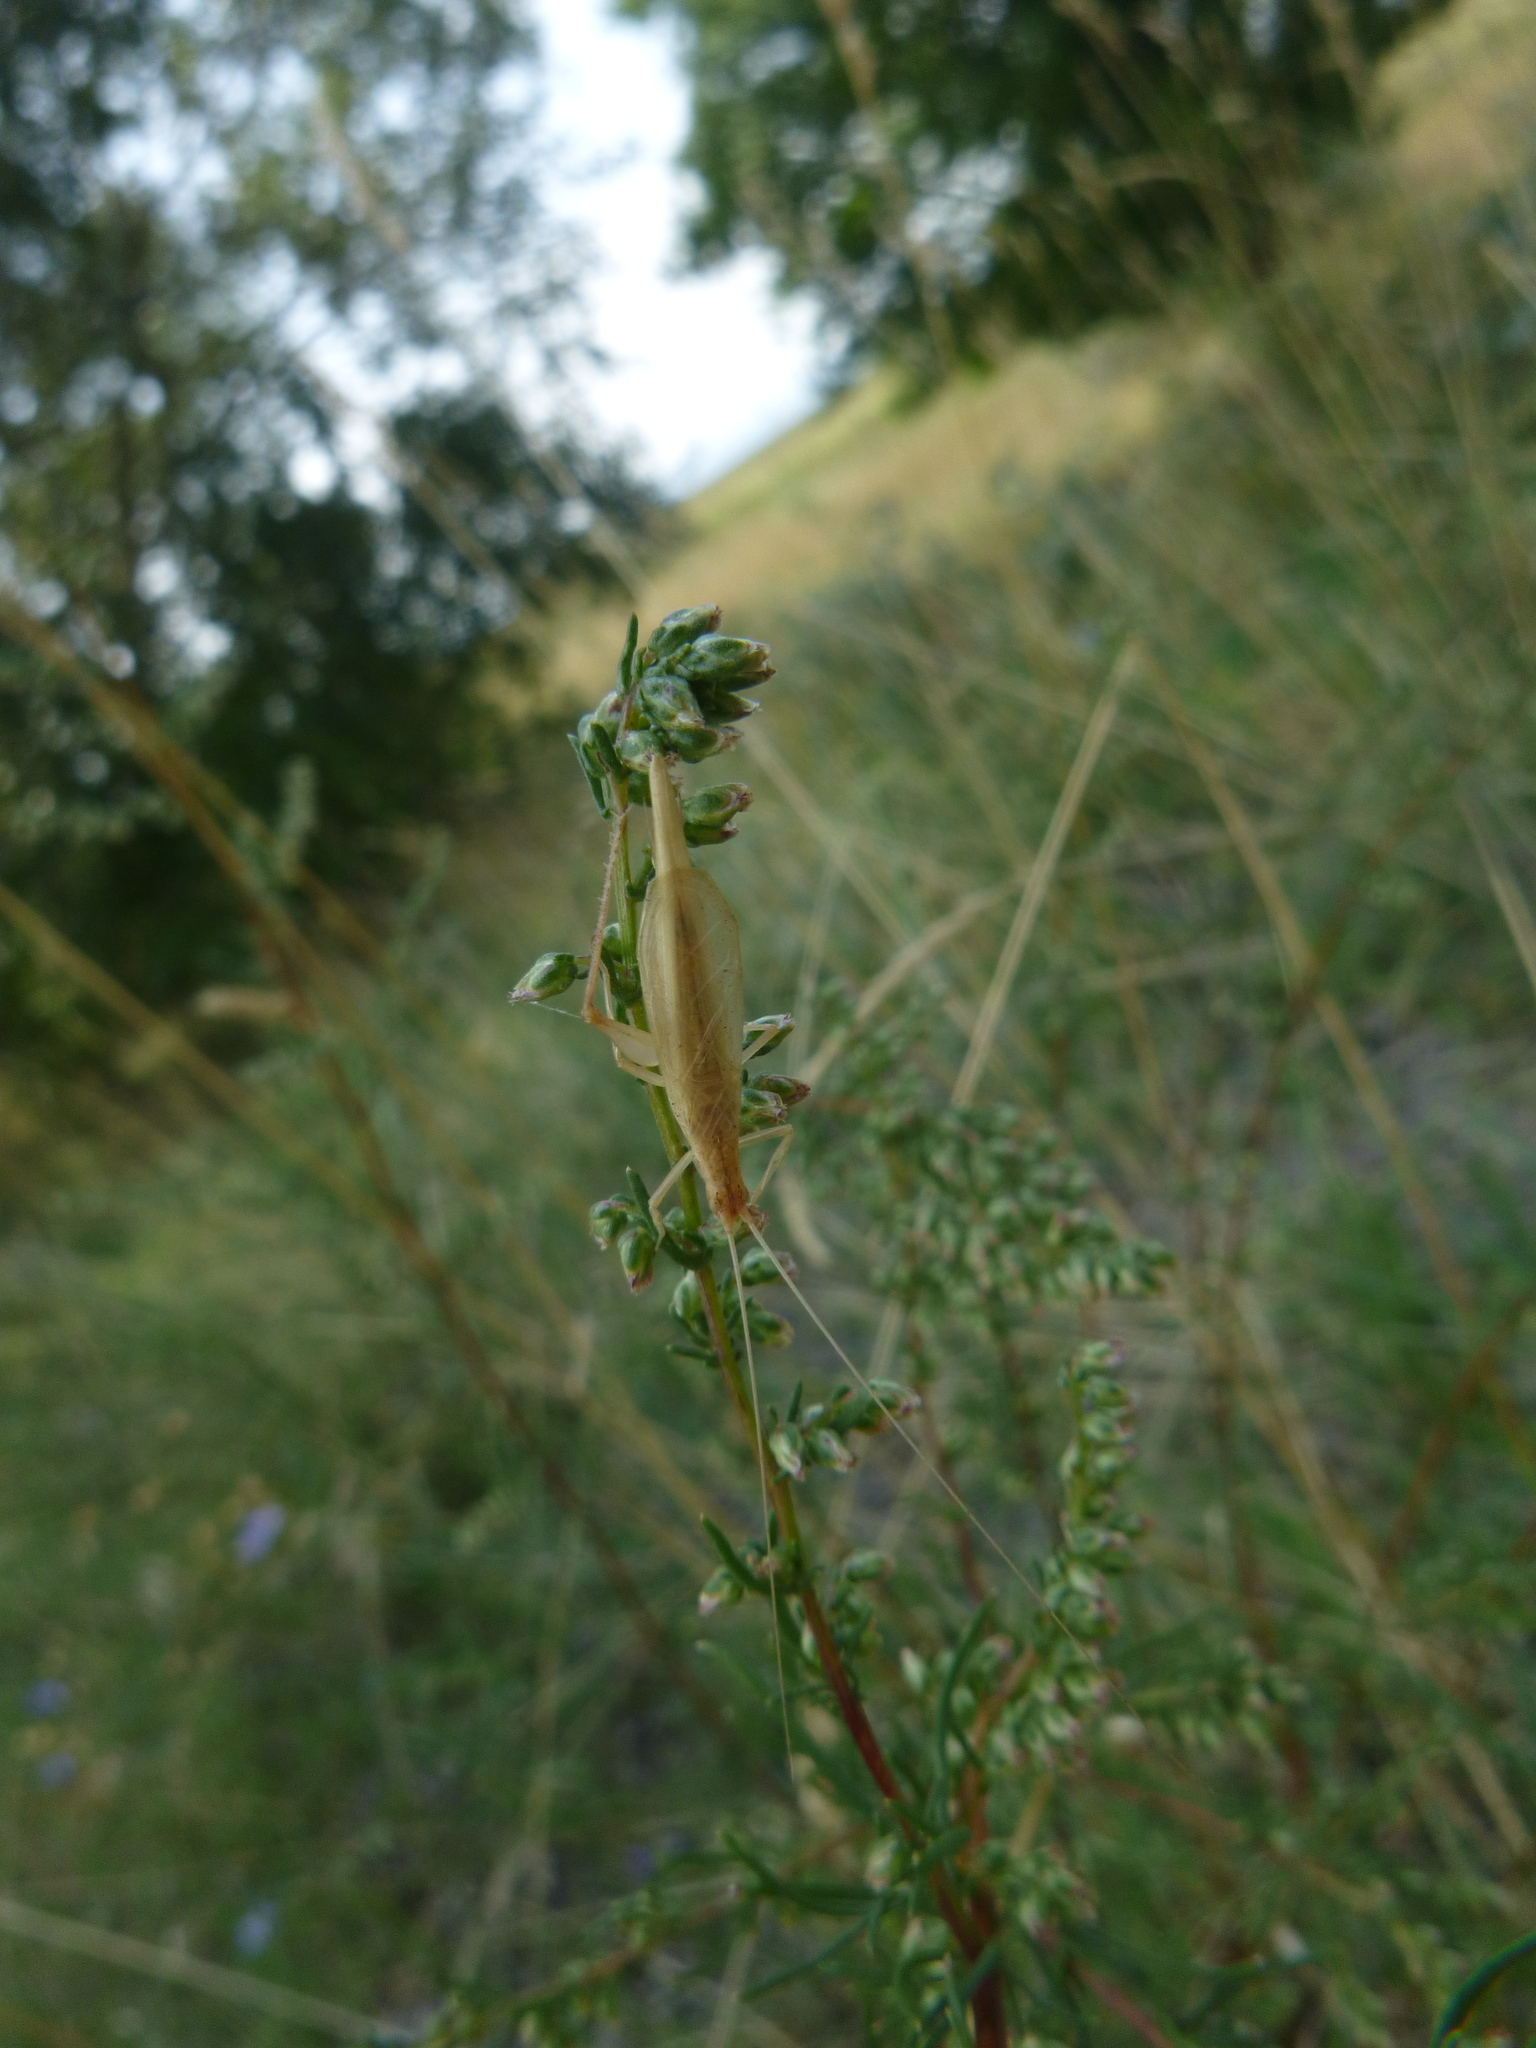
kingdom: Animalia
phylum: Arthropoda
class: Insecta
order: Orthoptera
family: Gryllidae
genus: Oecanthus
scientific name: Oecanthus pellucens
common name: Tree-cricket
